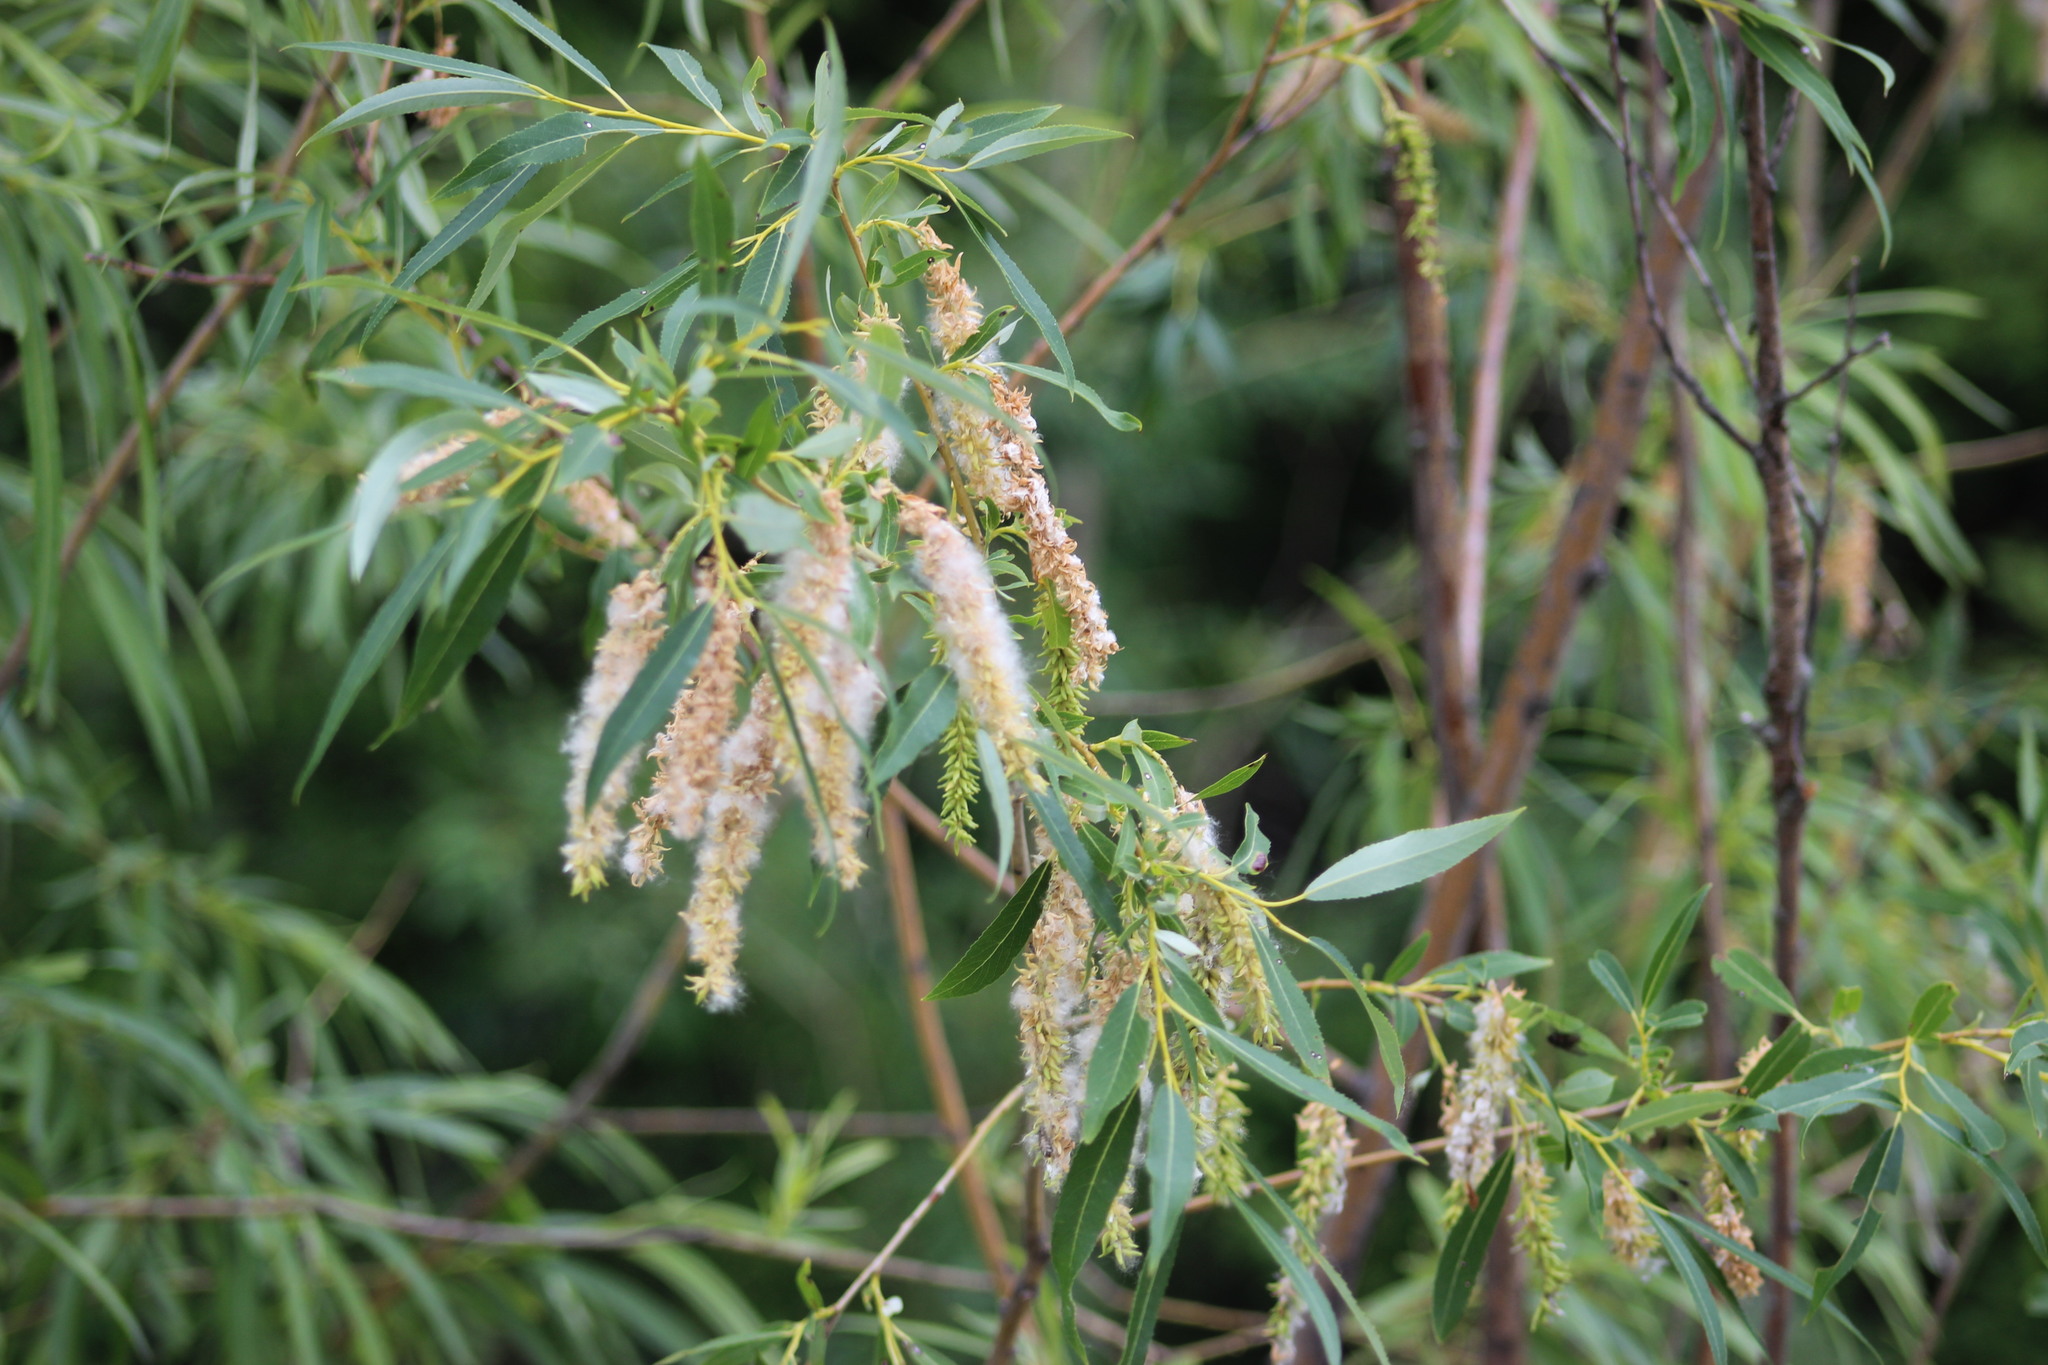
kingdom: Plantae
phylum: Tracheophyta
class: Magnoliopsida
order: Malpighiales
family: Salicaceae
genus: Salix
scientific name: Salix triandra
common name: Almond willow
